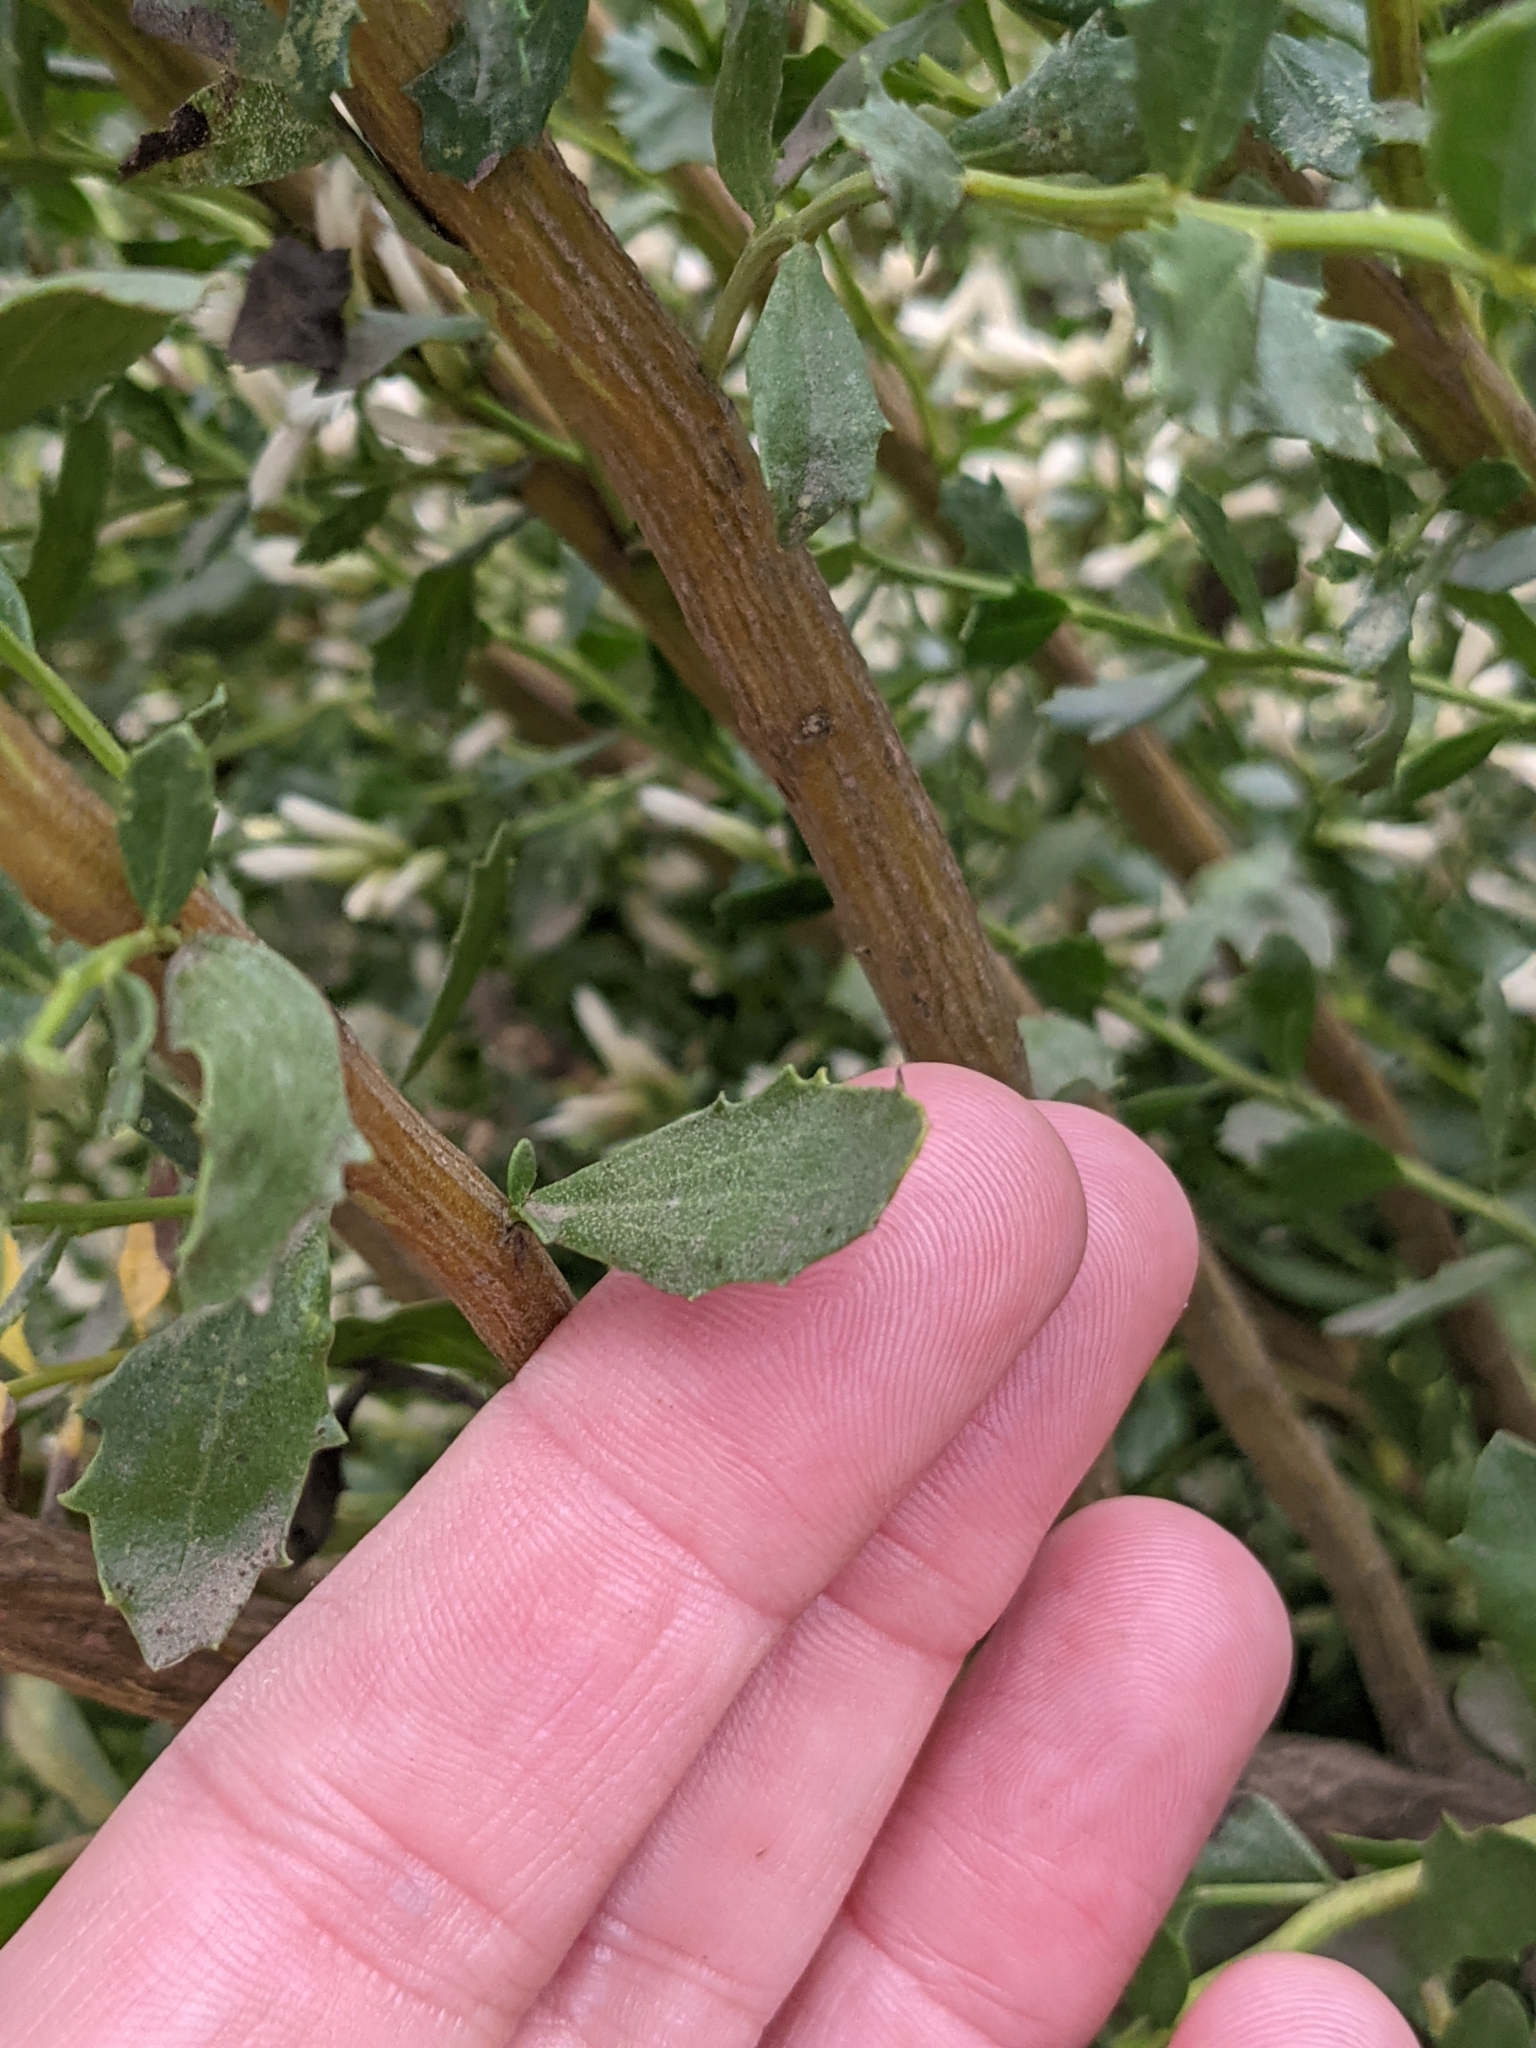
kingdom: Plantae
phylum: Tracheophyta
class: Magnoliopsida
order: Asterales
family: Asteraceae
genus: Baccharis
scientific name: Baccharis pilularis
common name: Coyotebrush
